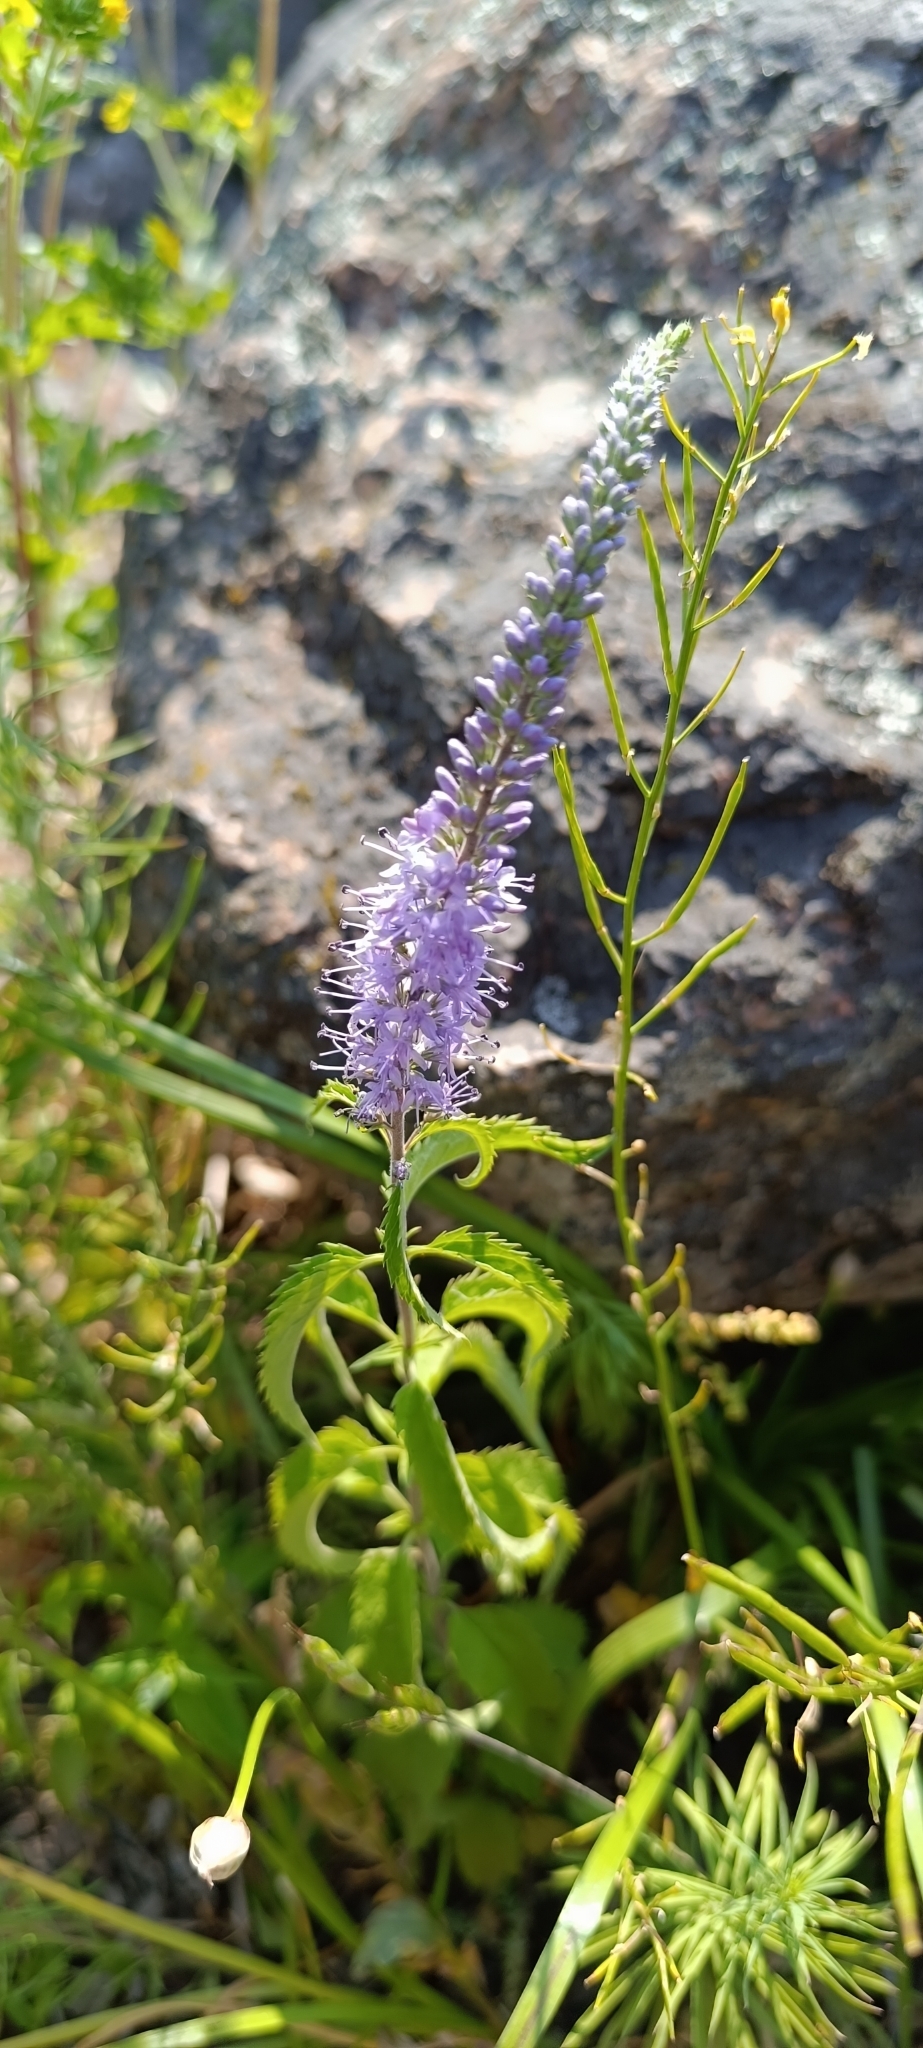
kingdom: Plantae
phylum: Tracheophyta
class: Magnoliopsida
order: Lamiales
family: Plantaginaceae
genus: Veronica
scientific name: Veronica longifolia
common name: Garden speedwell
